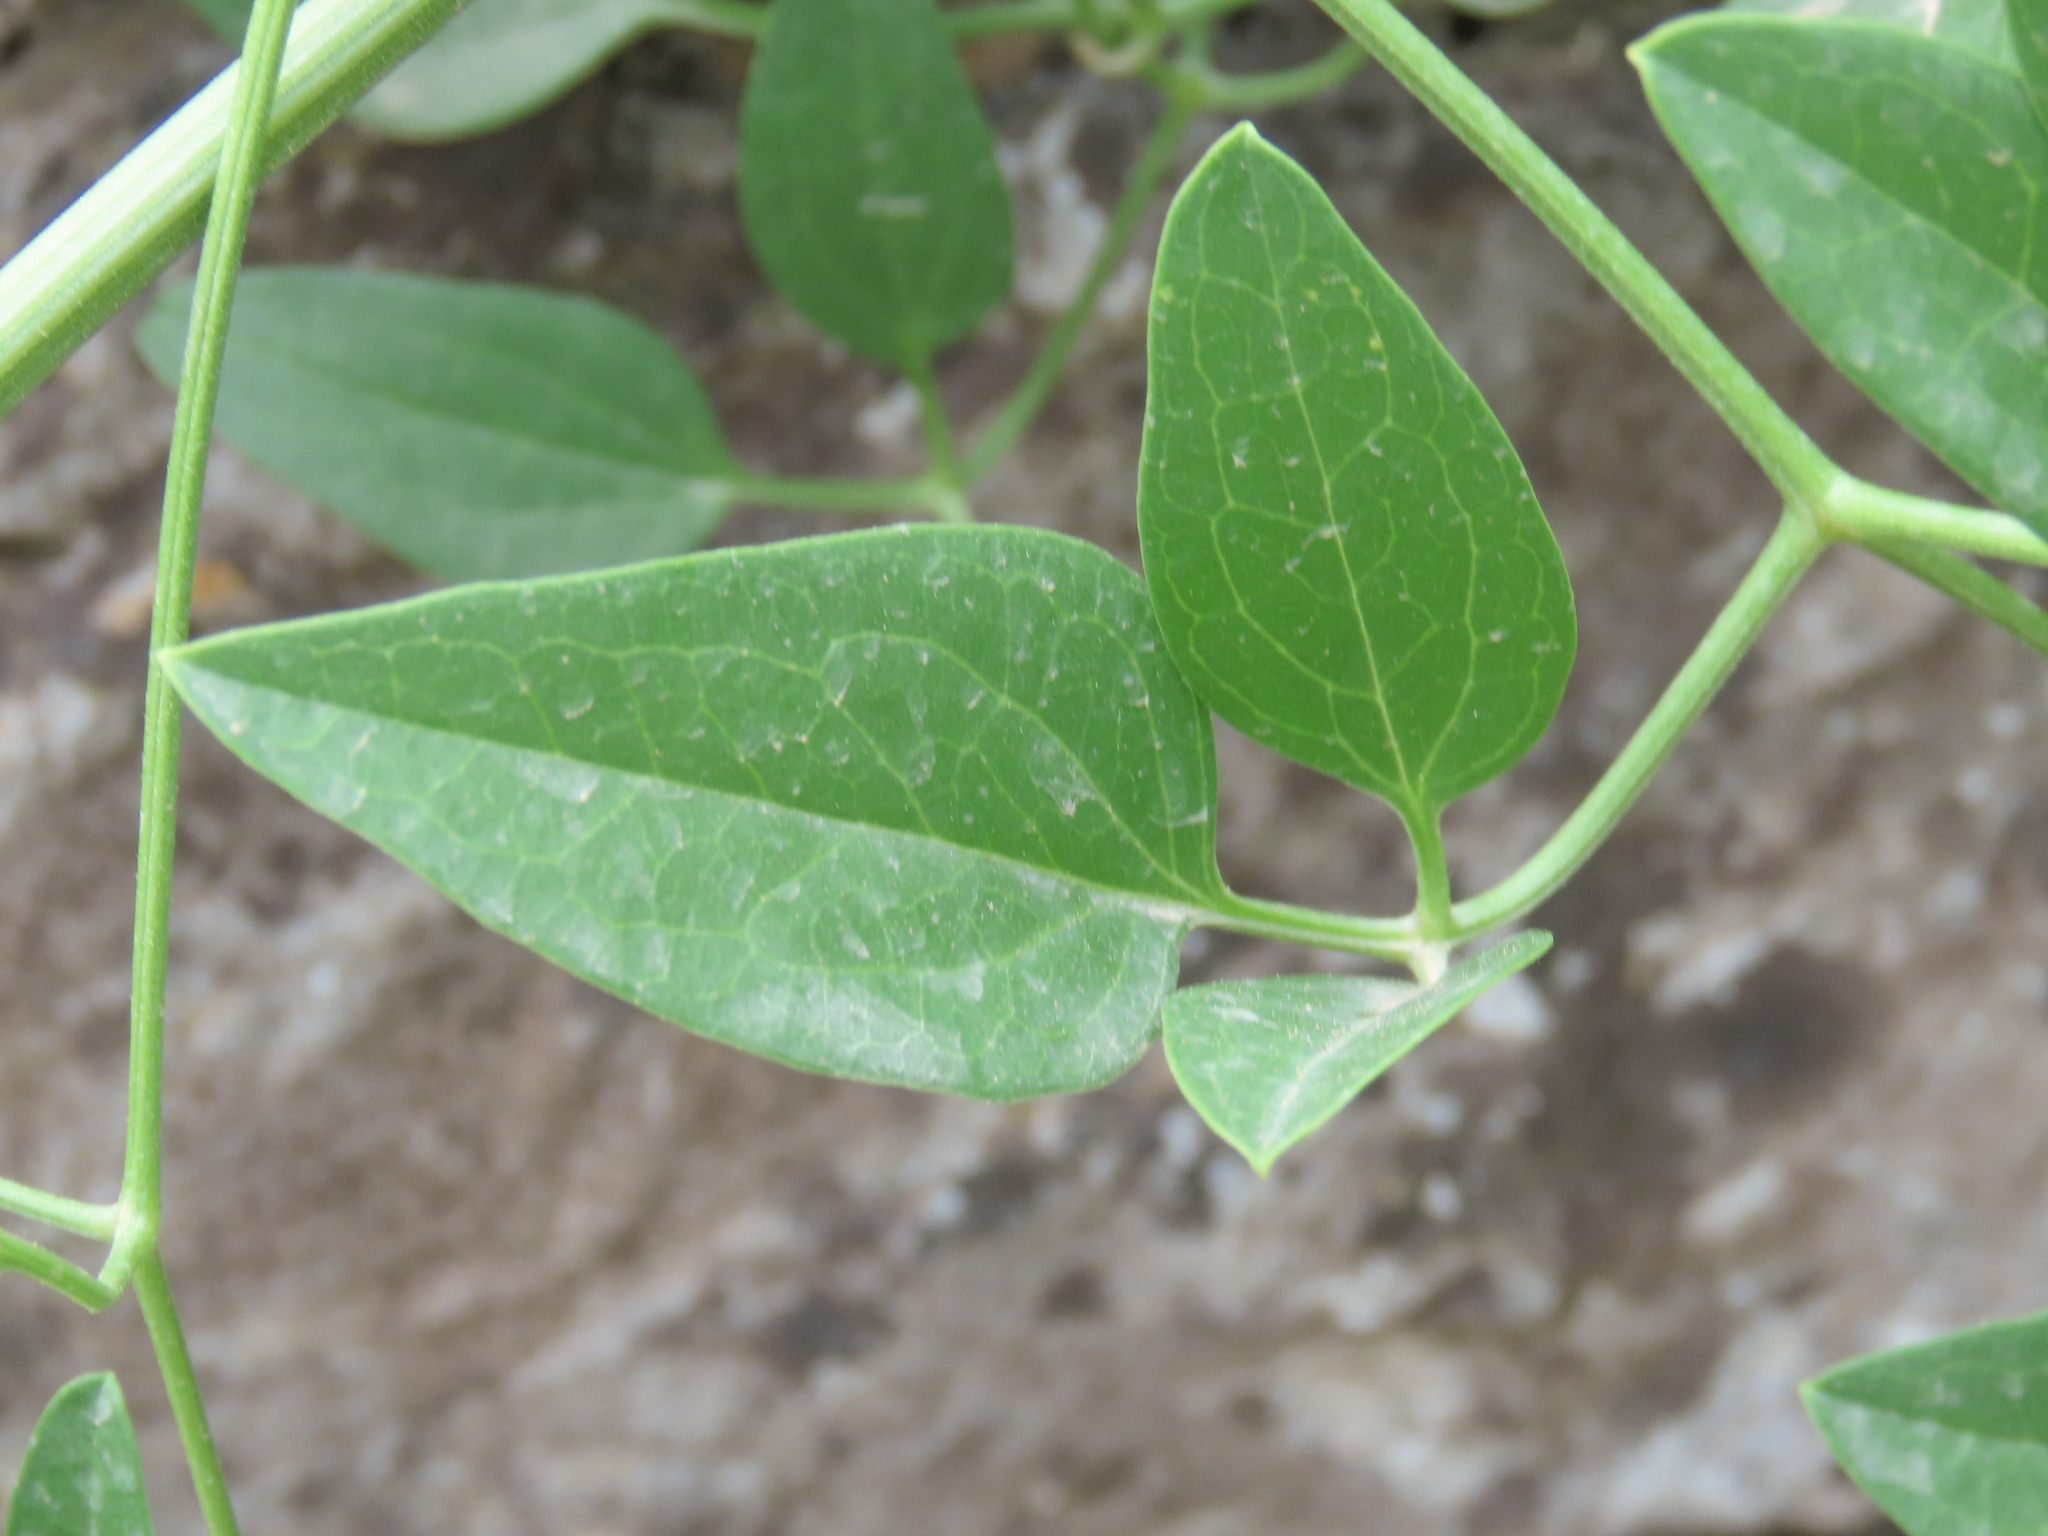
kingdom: Plantae
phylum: Tracheophyta
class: Magnoliopsida
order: Ranunculales
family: Ranunculaceae
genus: Clematis
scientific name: Clematis flammula
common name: Virgin's-bower
